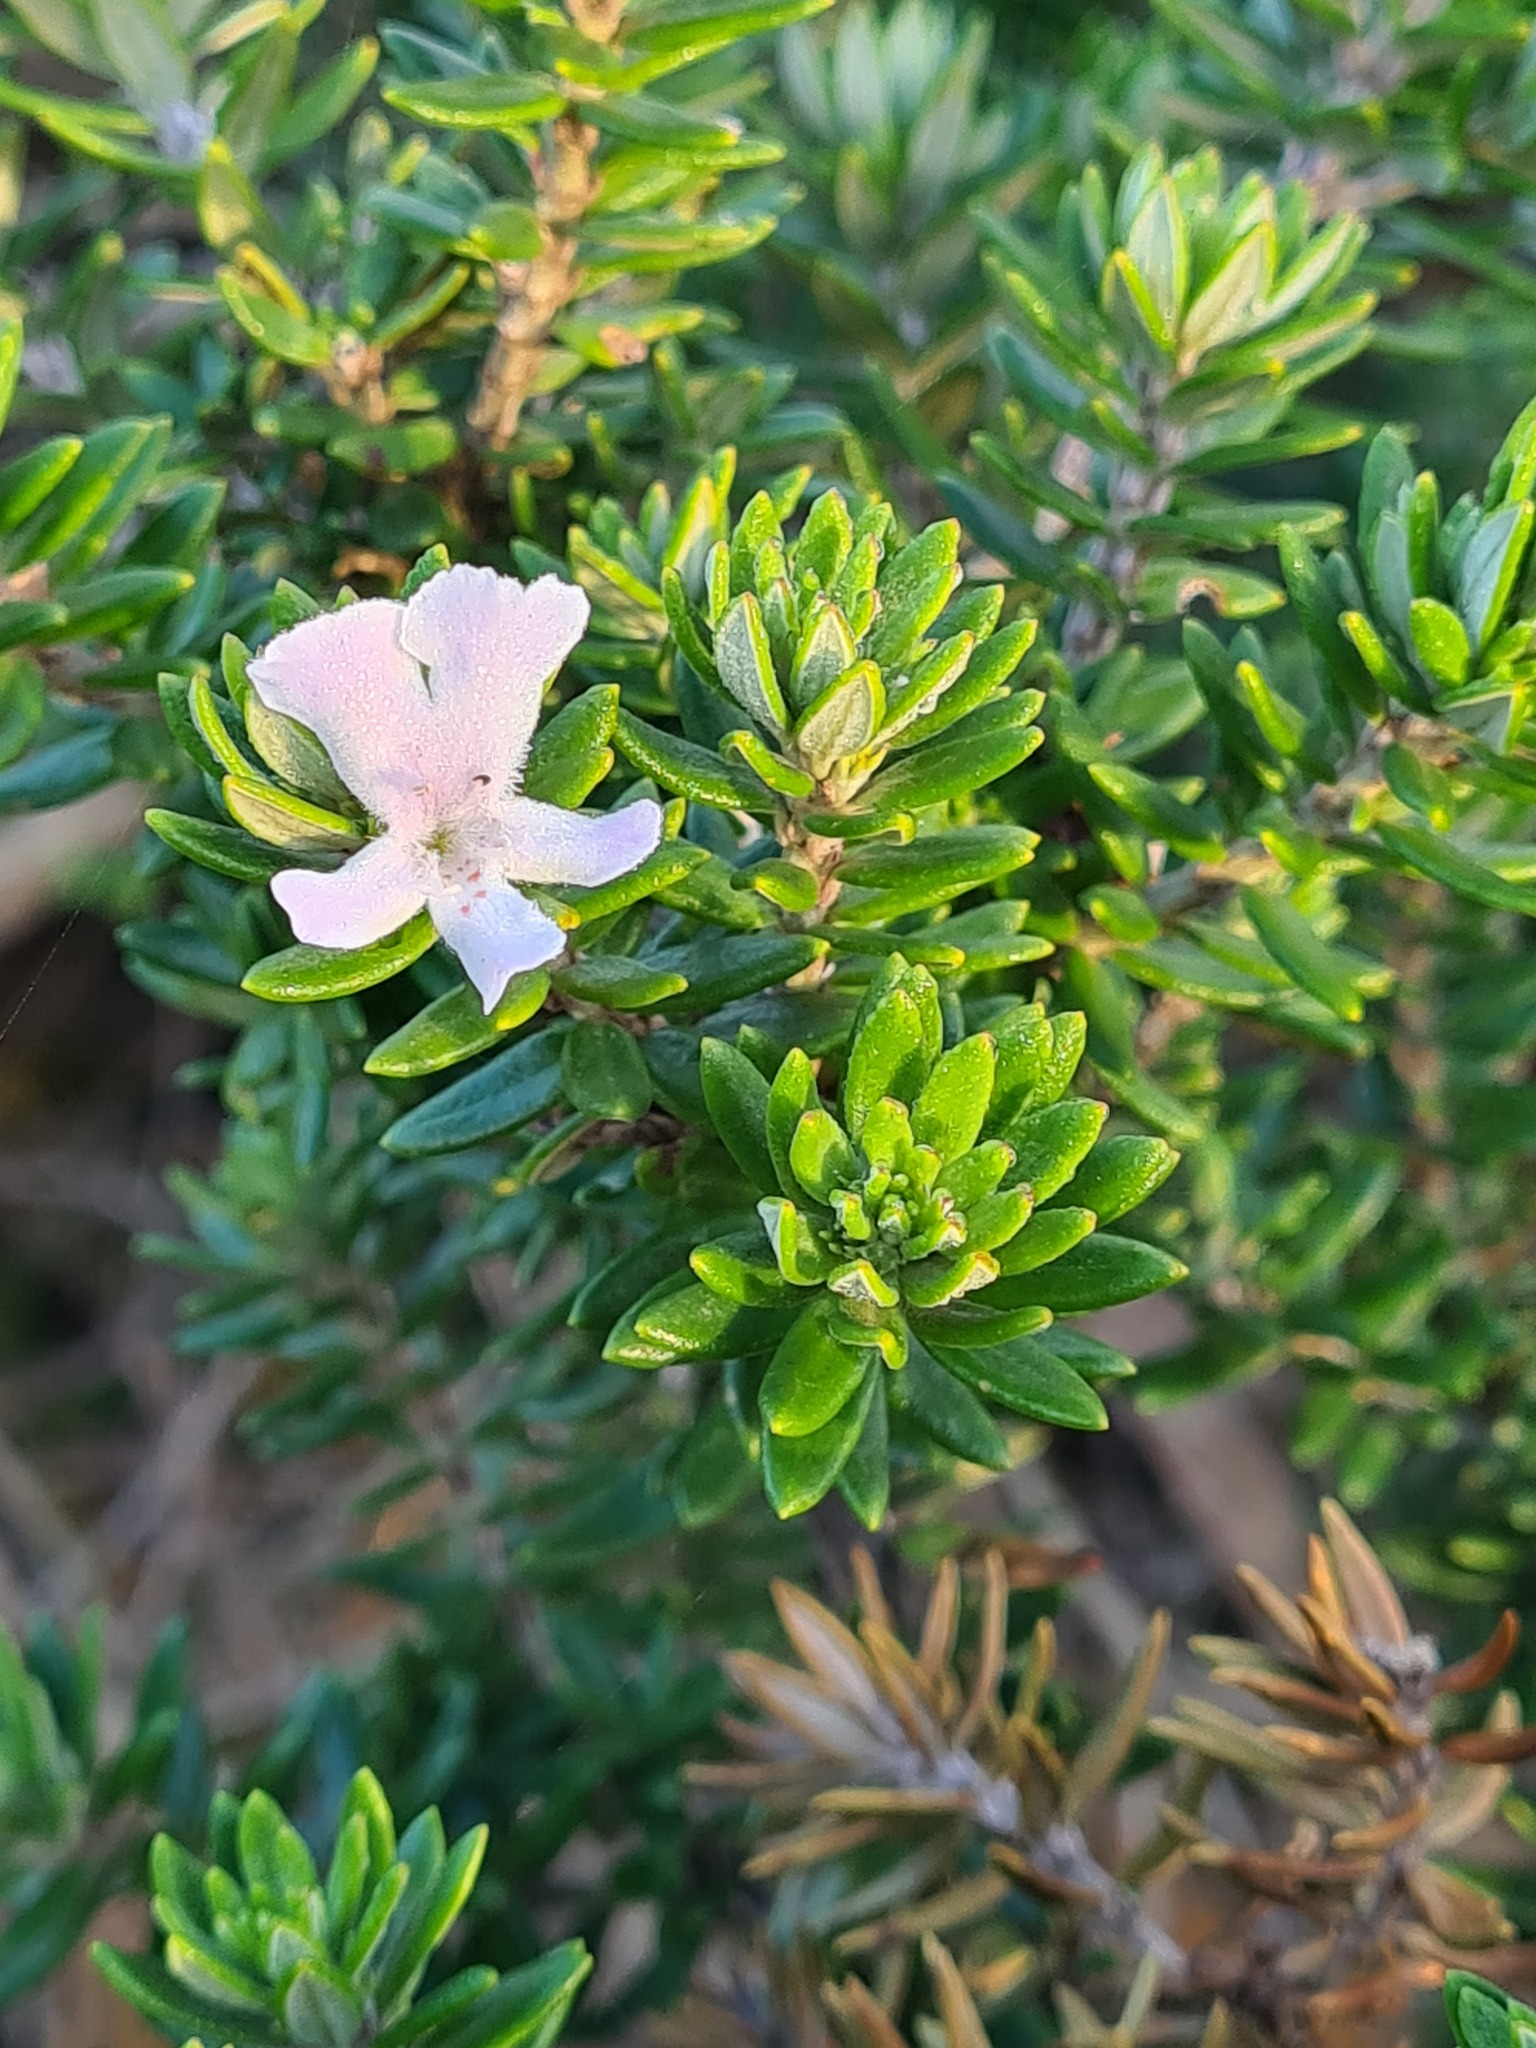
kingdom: Plantae
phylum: Tracheophyta
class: Magnoliopsida
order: Lamiales
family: Lamiaceae
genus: Westringia
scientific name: Westringia fruticosa
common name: Coastal-rosemary
